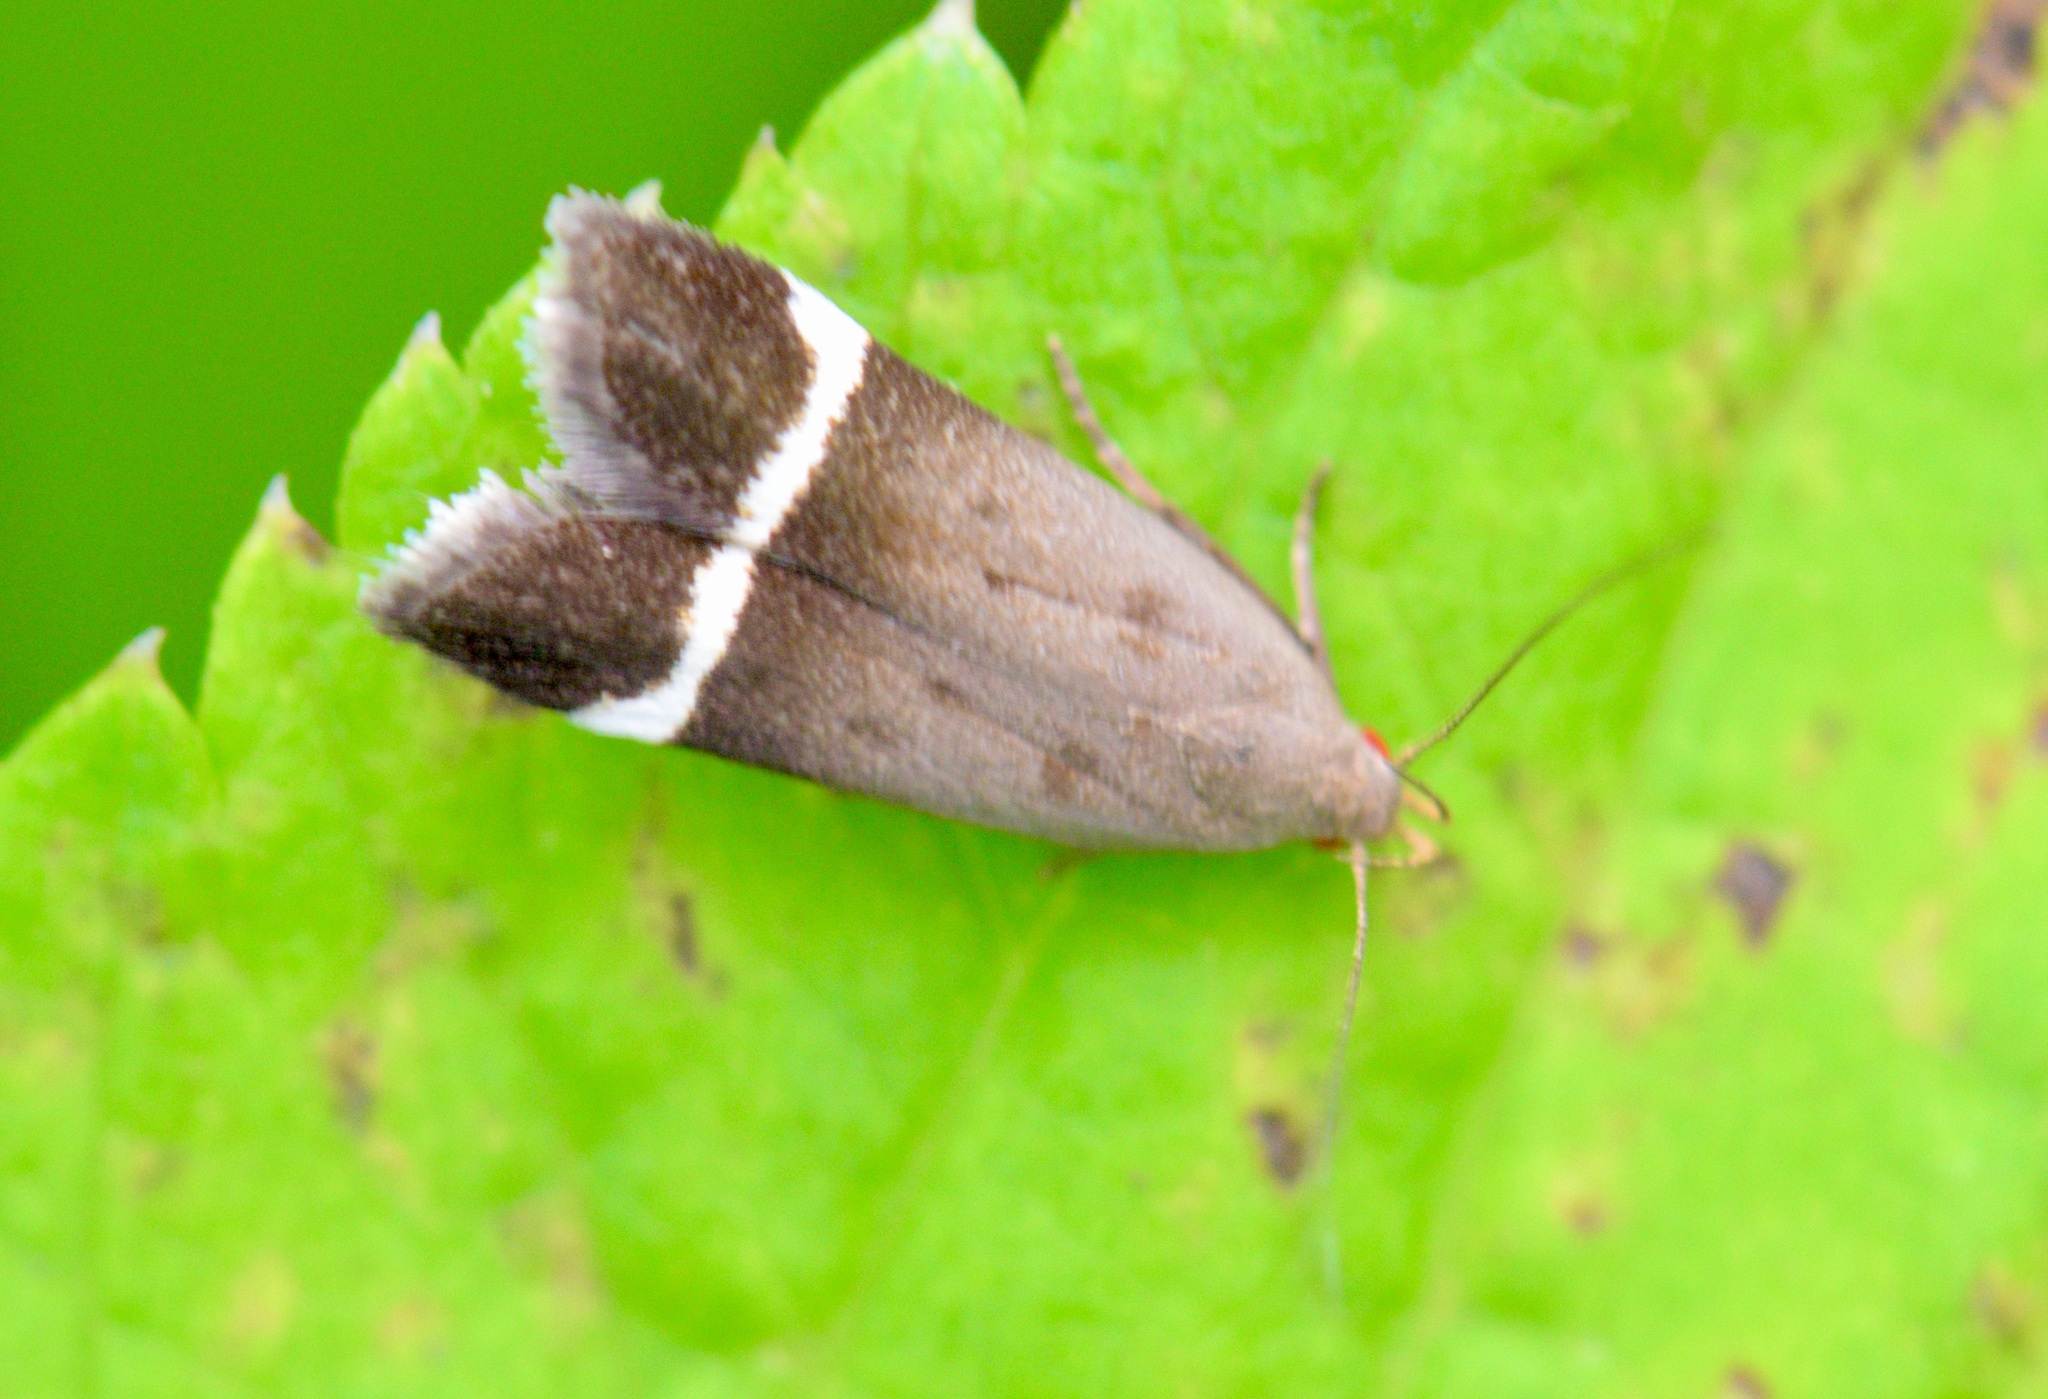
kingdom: Animalia
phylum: Arthropoda
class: Insecta
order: Lepidoptera
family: Gelechiidae
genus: Anacampsis
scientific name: Anacampsis agrimoniella
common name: Agrimony anacampsis moth
